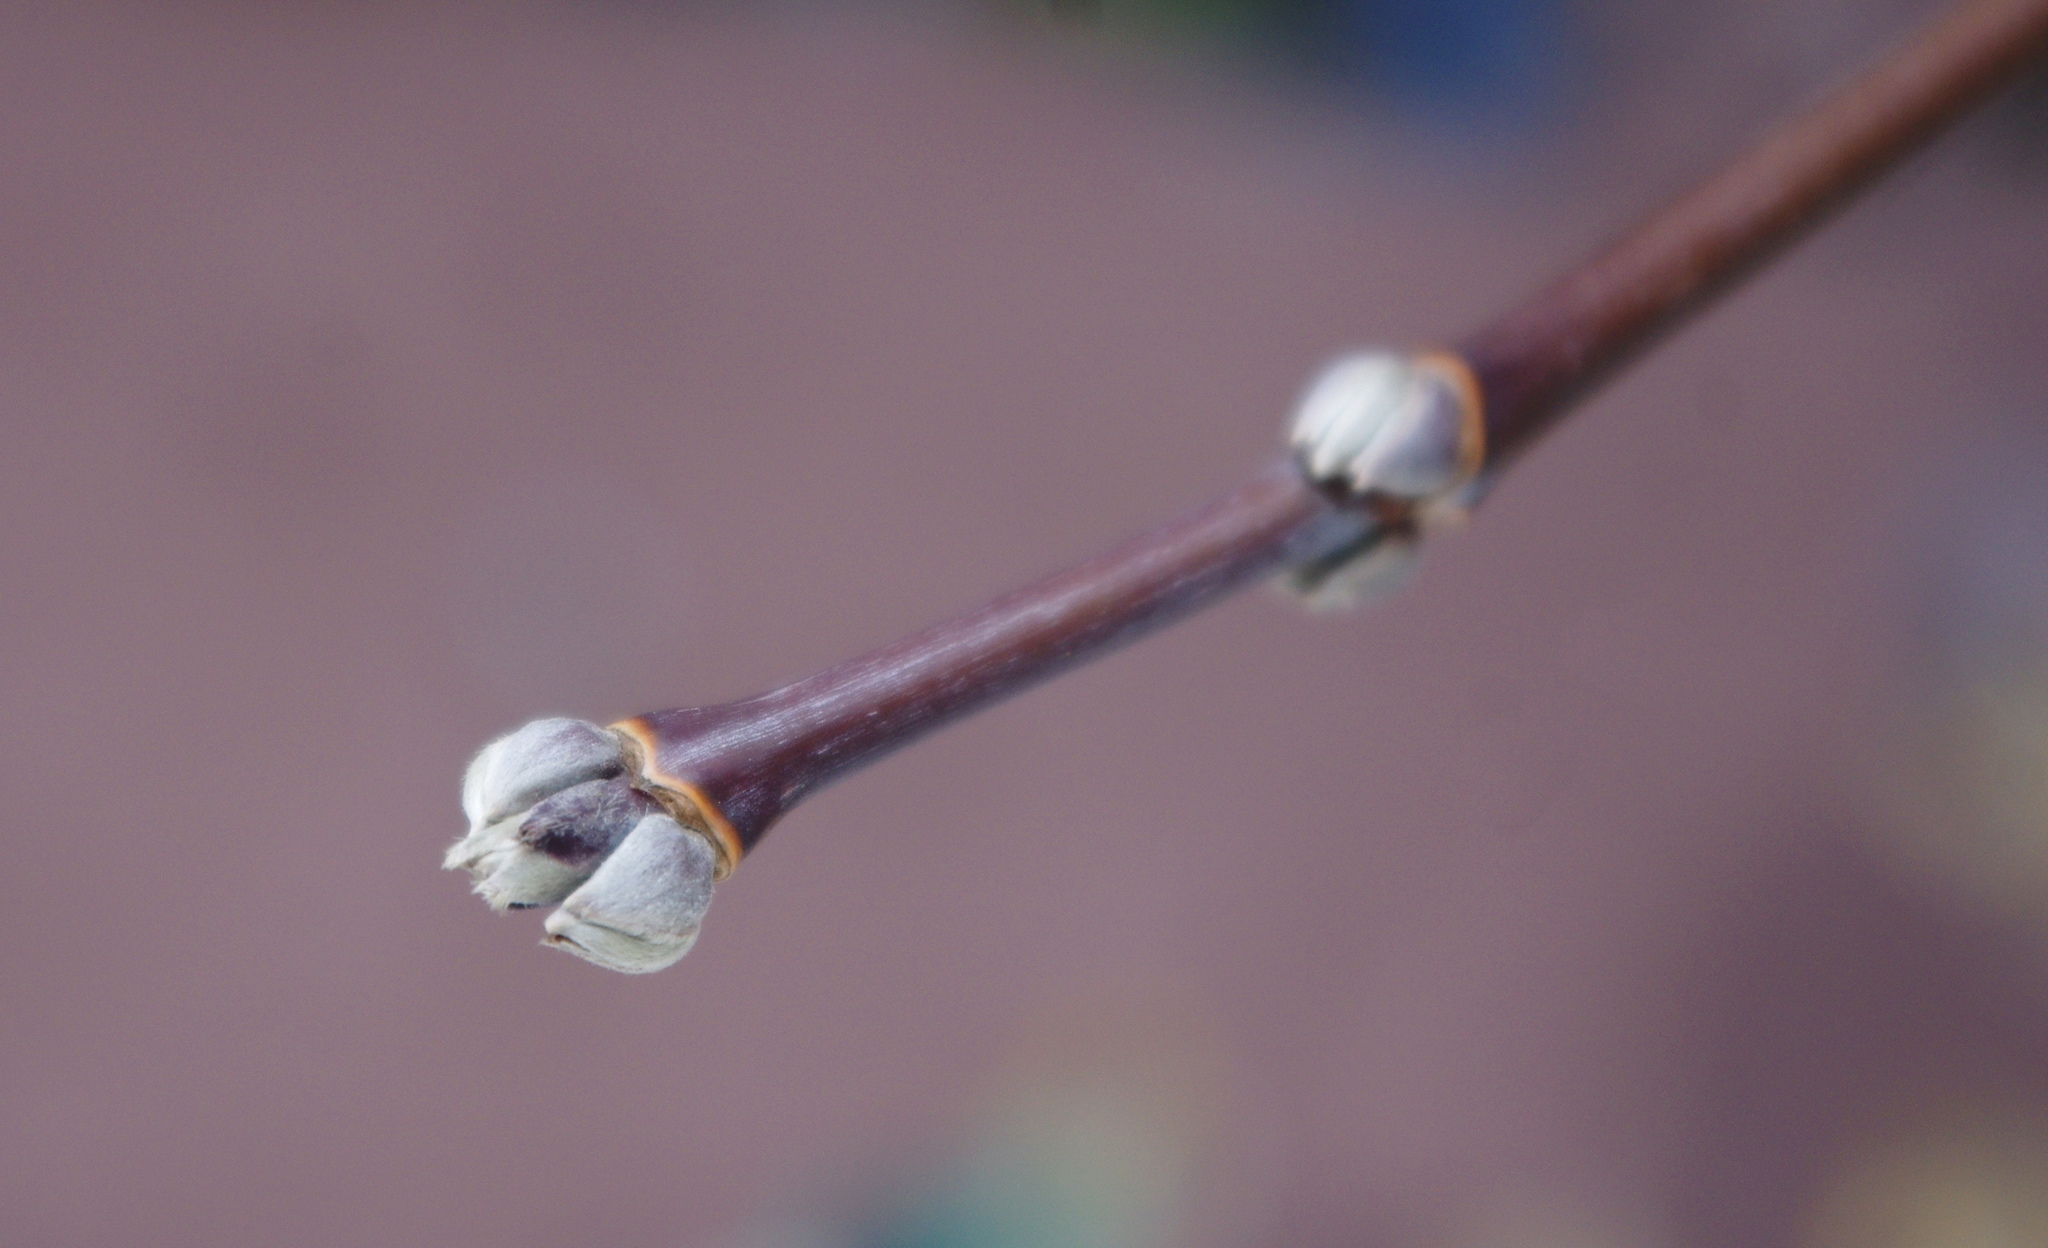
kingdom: Plantae
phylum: Tracheophyta
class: Magnoliopsida
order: Sapindales
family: Sapindaceae
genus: Acer
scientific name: Acer negundo
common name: Ashleaf maple
